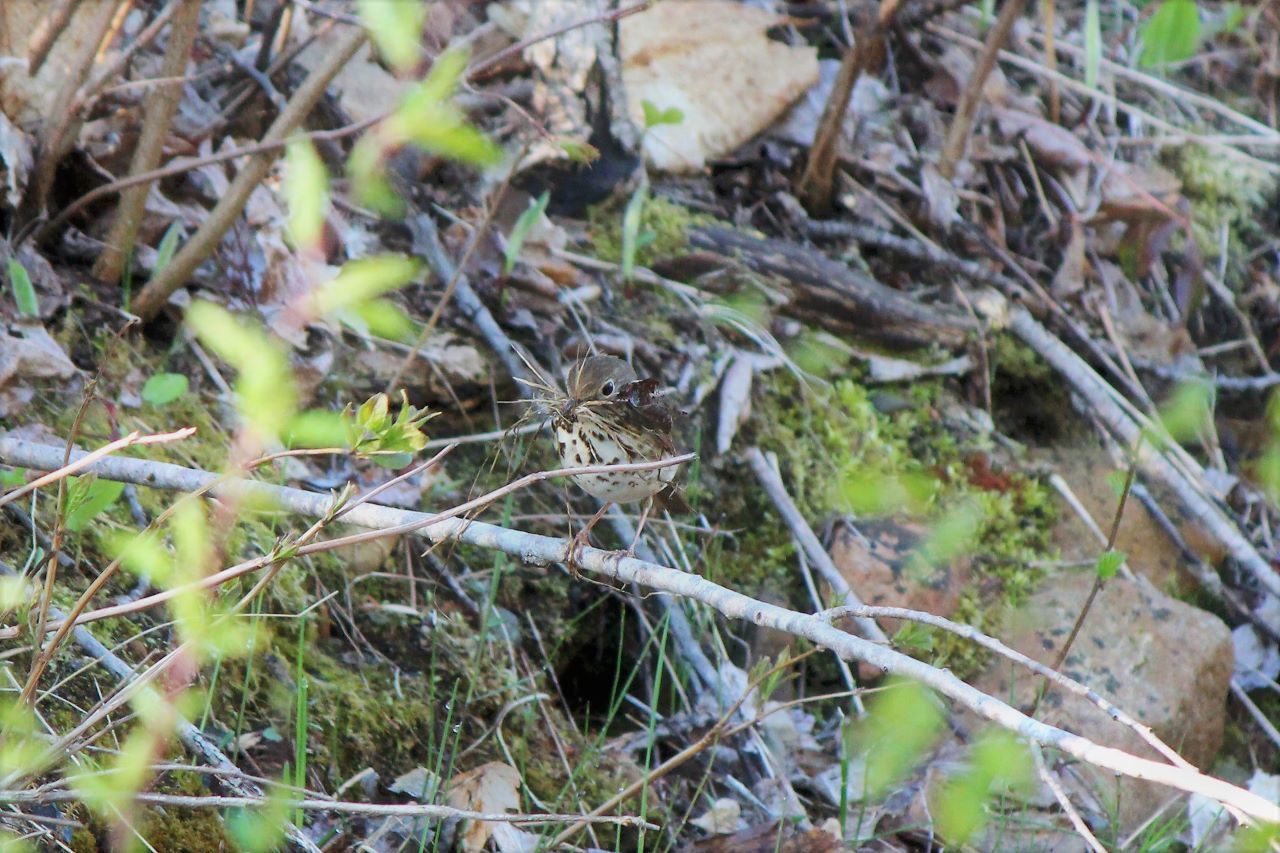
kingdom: Animalia
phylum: Chordata
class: Aves
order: Passeriformes
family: Turdidae
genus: Catharus
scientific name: Catharus guttatus
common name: Hermit thrush
